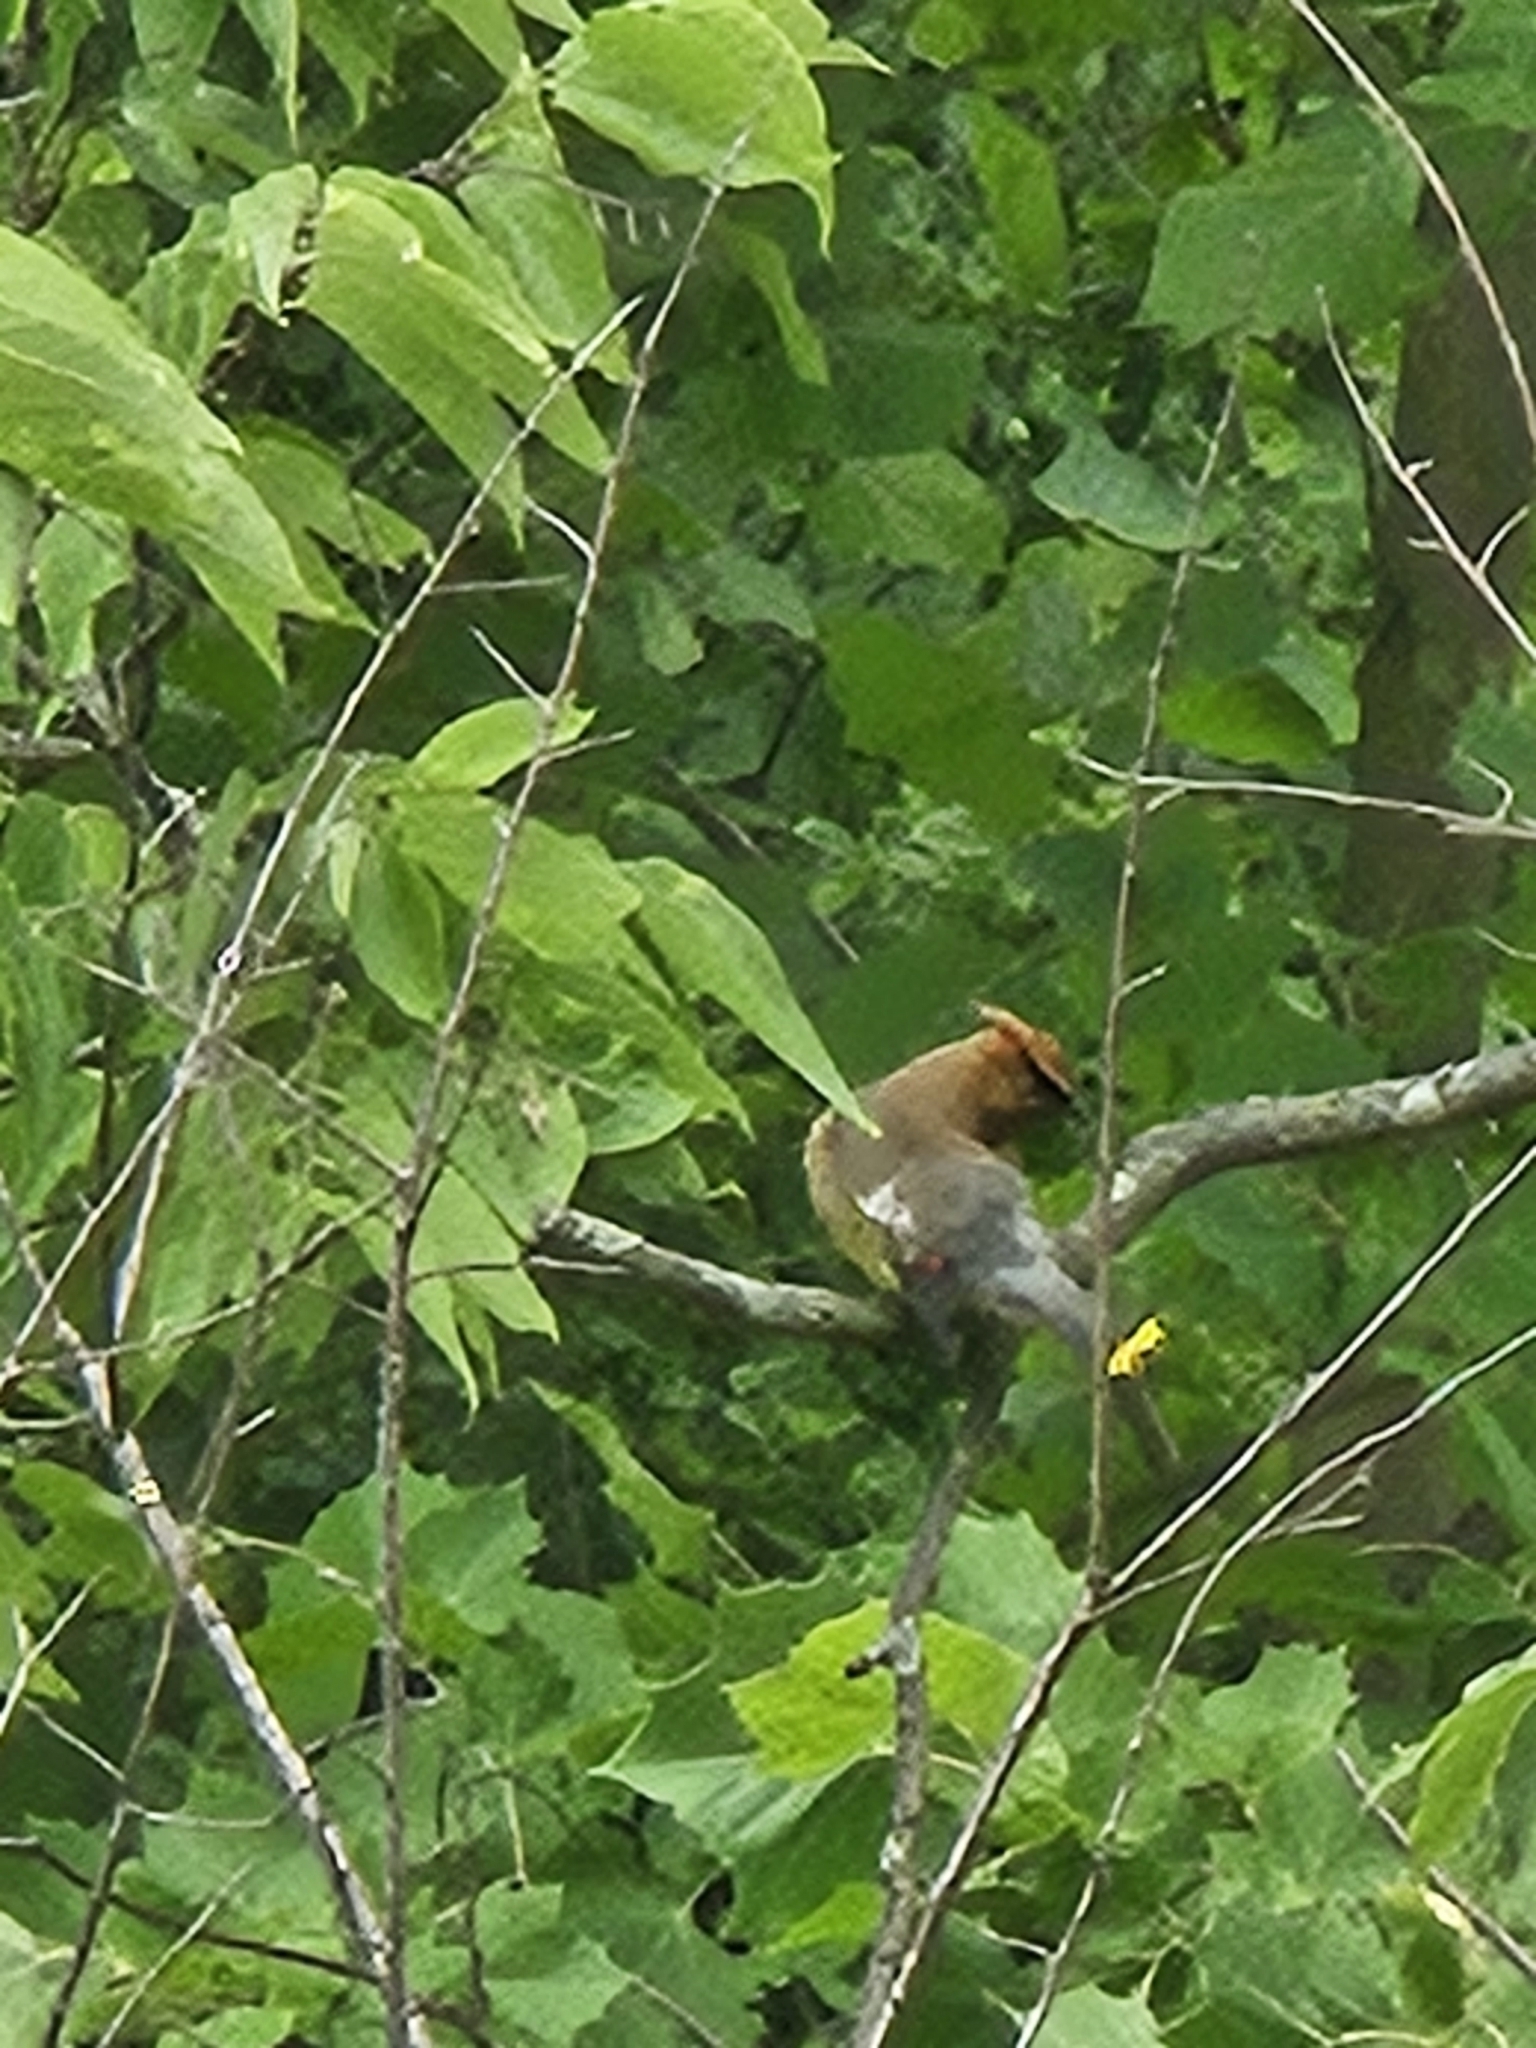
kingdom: Animalia
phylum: Chordata
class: Aves
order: Passeriformes
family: Bombycillidae
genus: Bombycilla
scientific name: Bombycilla cedrorum
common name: Cedar waxwing
